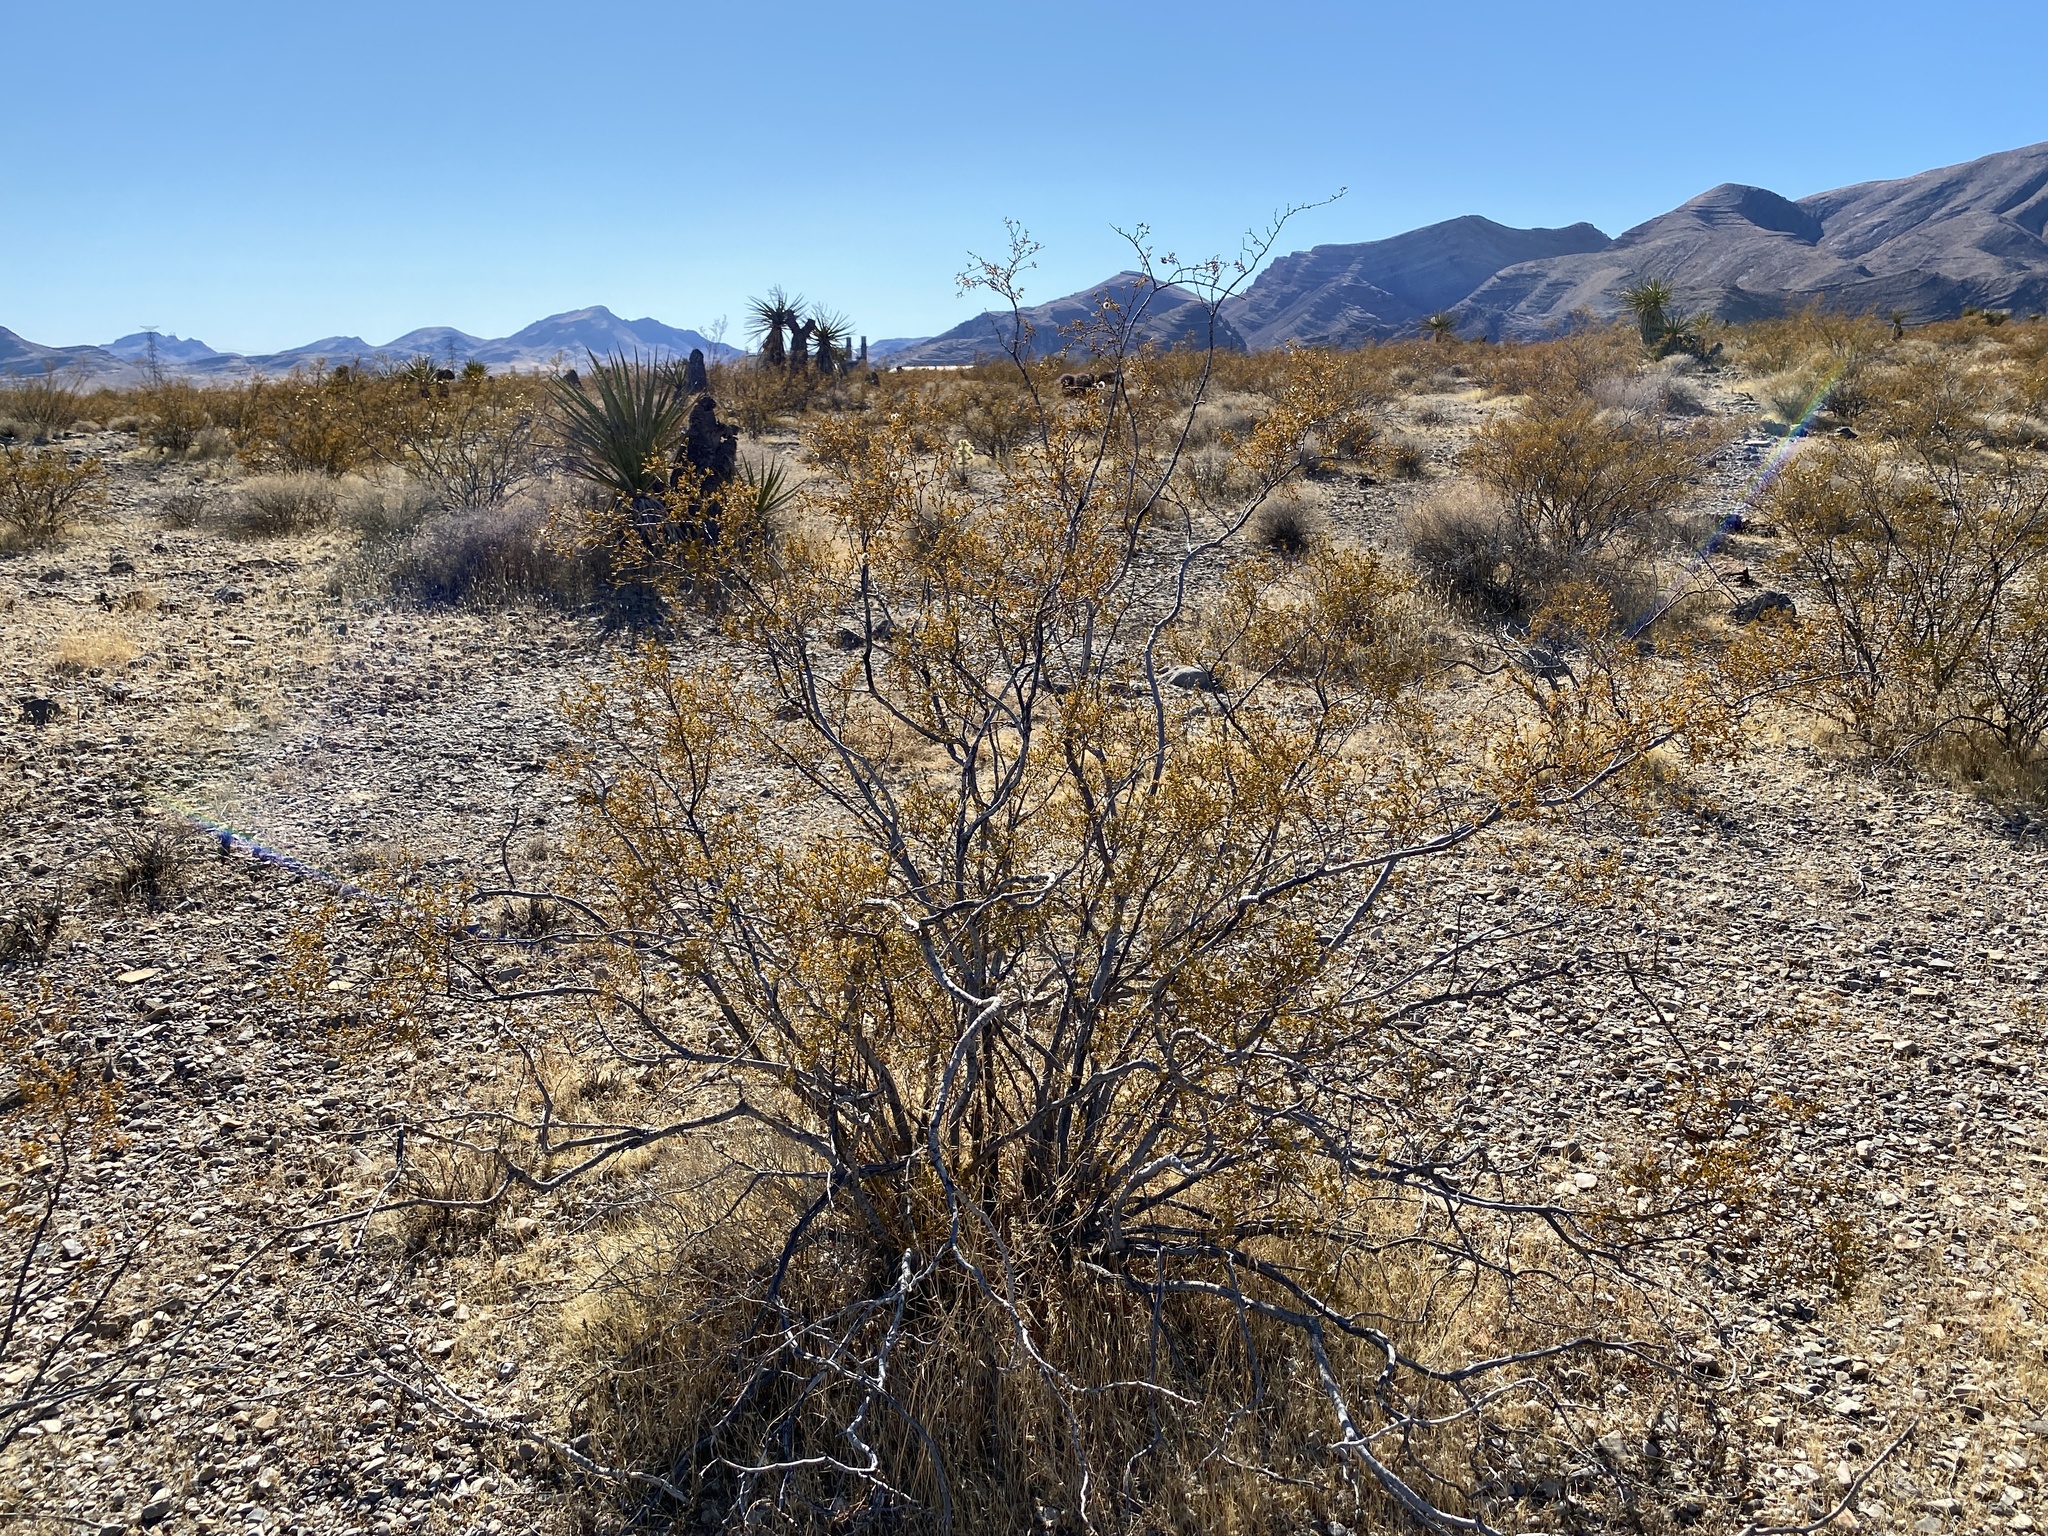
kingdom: Plantae
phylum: Tracheophyta
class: Magnoliopsida
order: Zygophyllales
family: Zygophyllaceae
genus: Larrea
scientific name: Larrea tridentata
